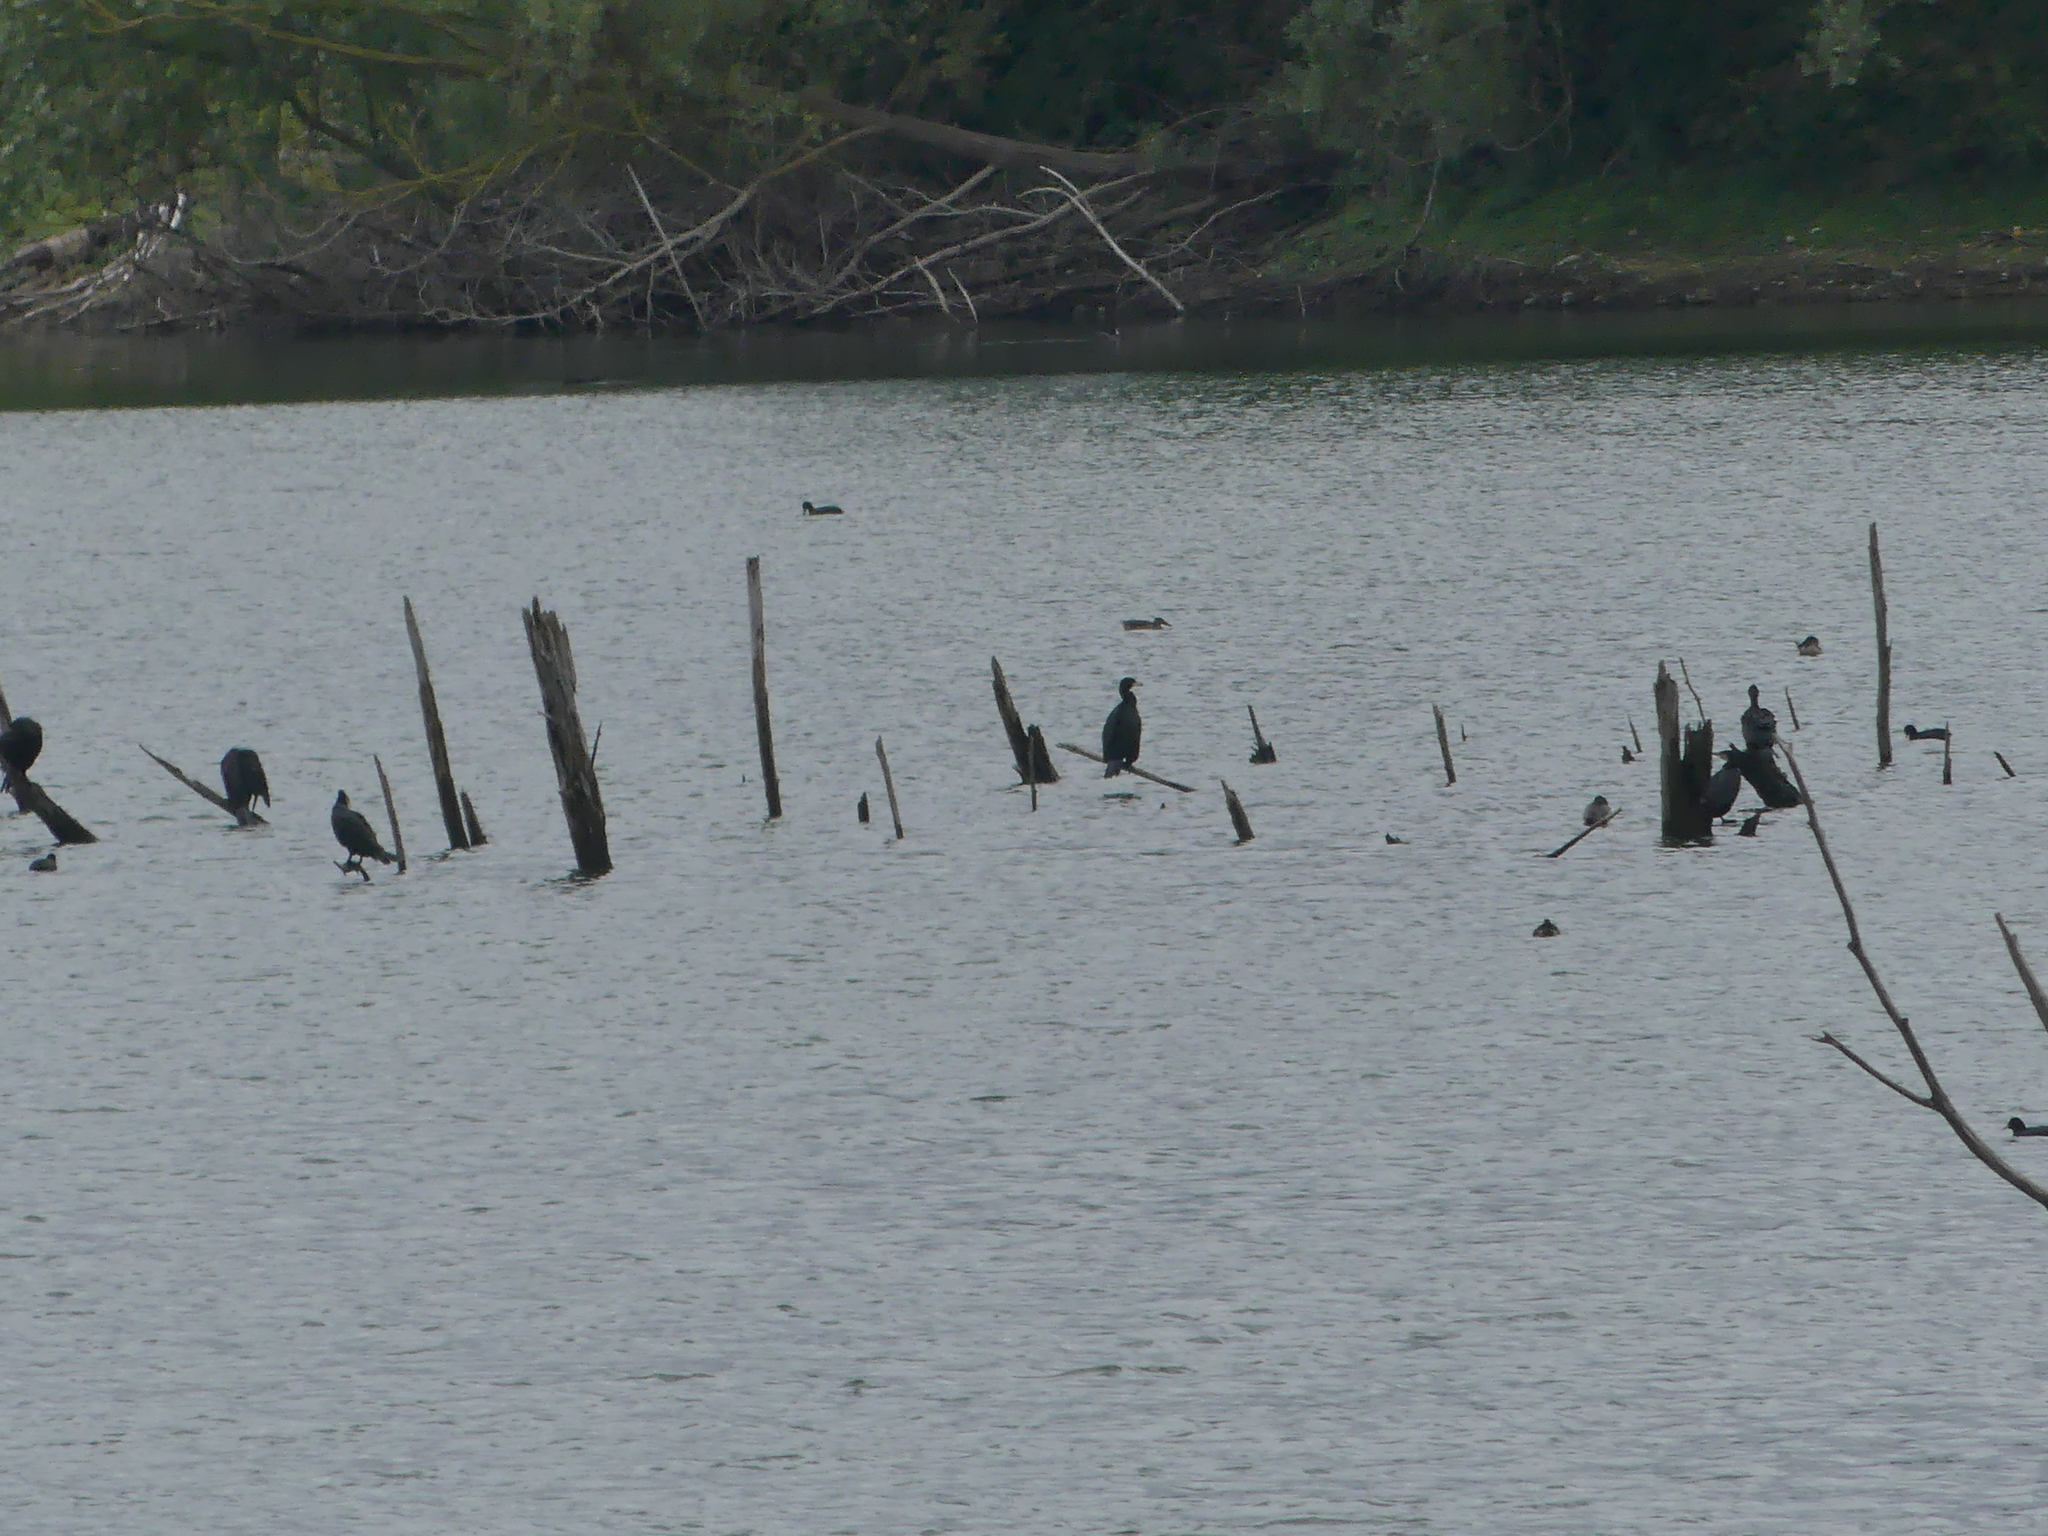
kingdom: Animalia
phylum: Chordata
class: Aves
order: Suliformes
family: Phalacrocoracidae
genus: Phalacrocorax
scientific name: Phalacrocorax carbo
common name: Great cormorant
